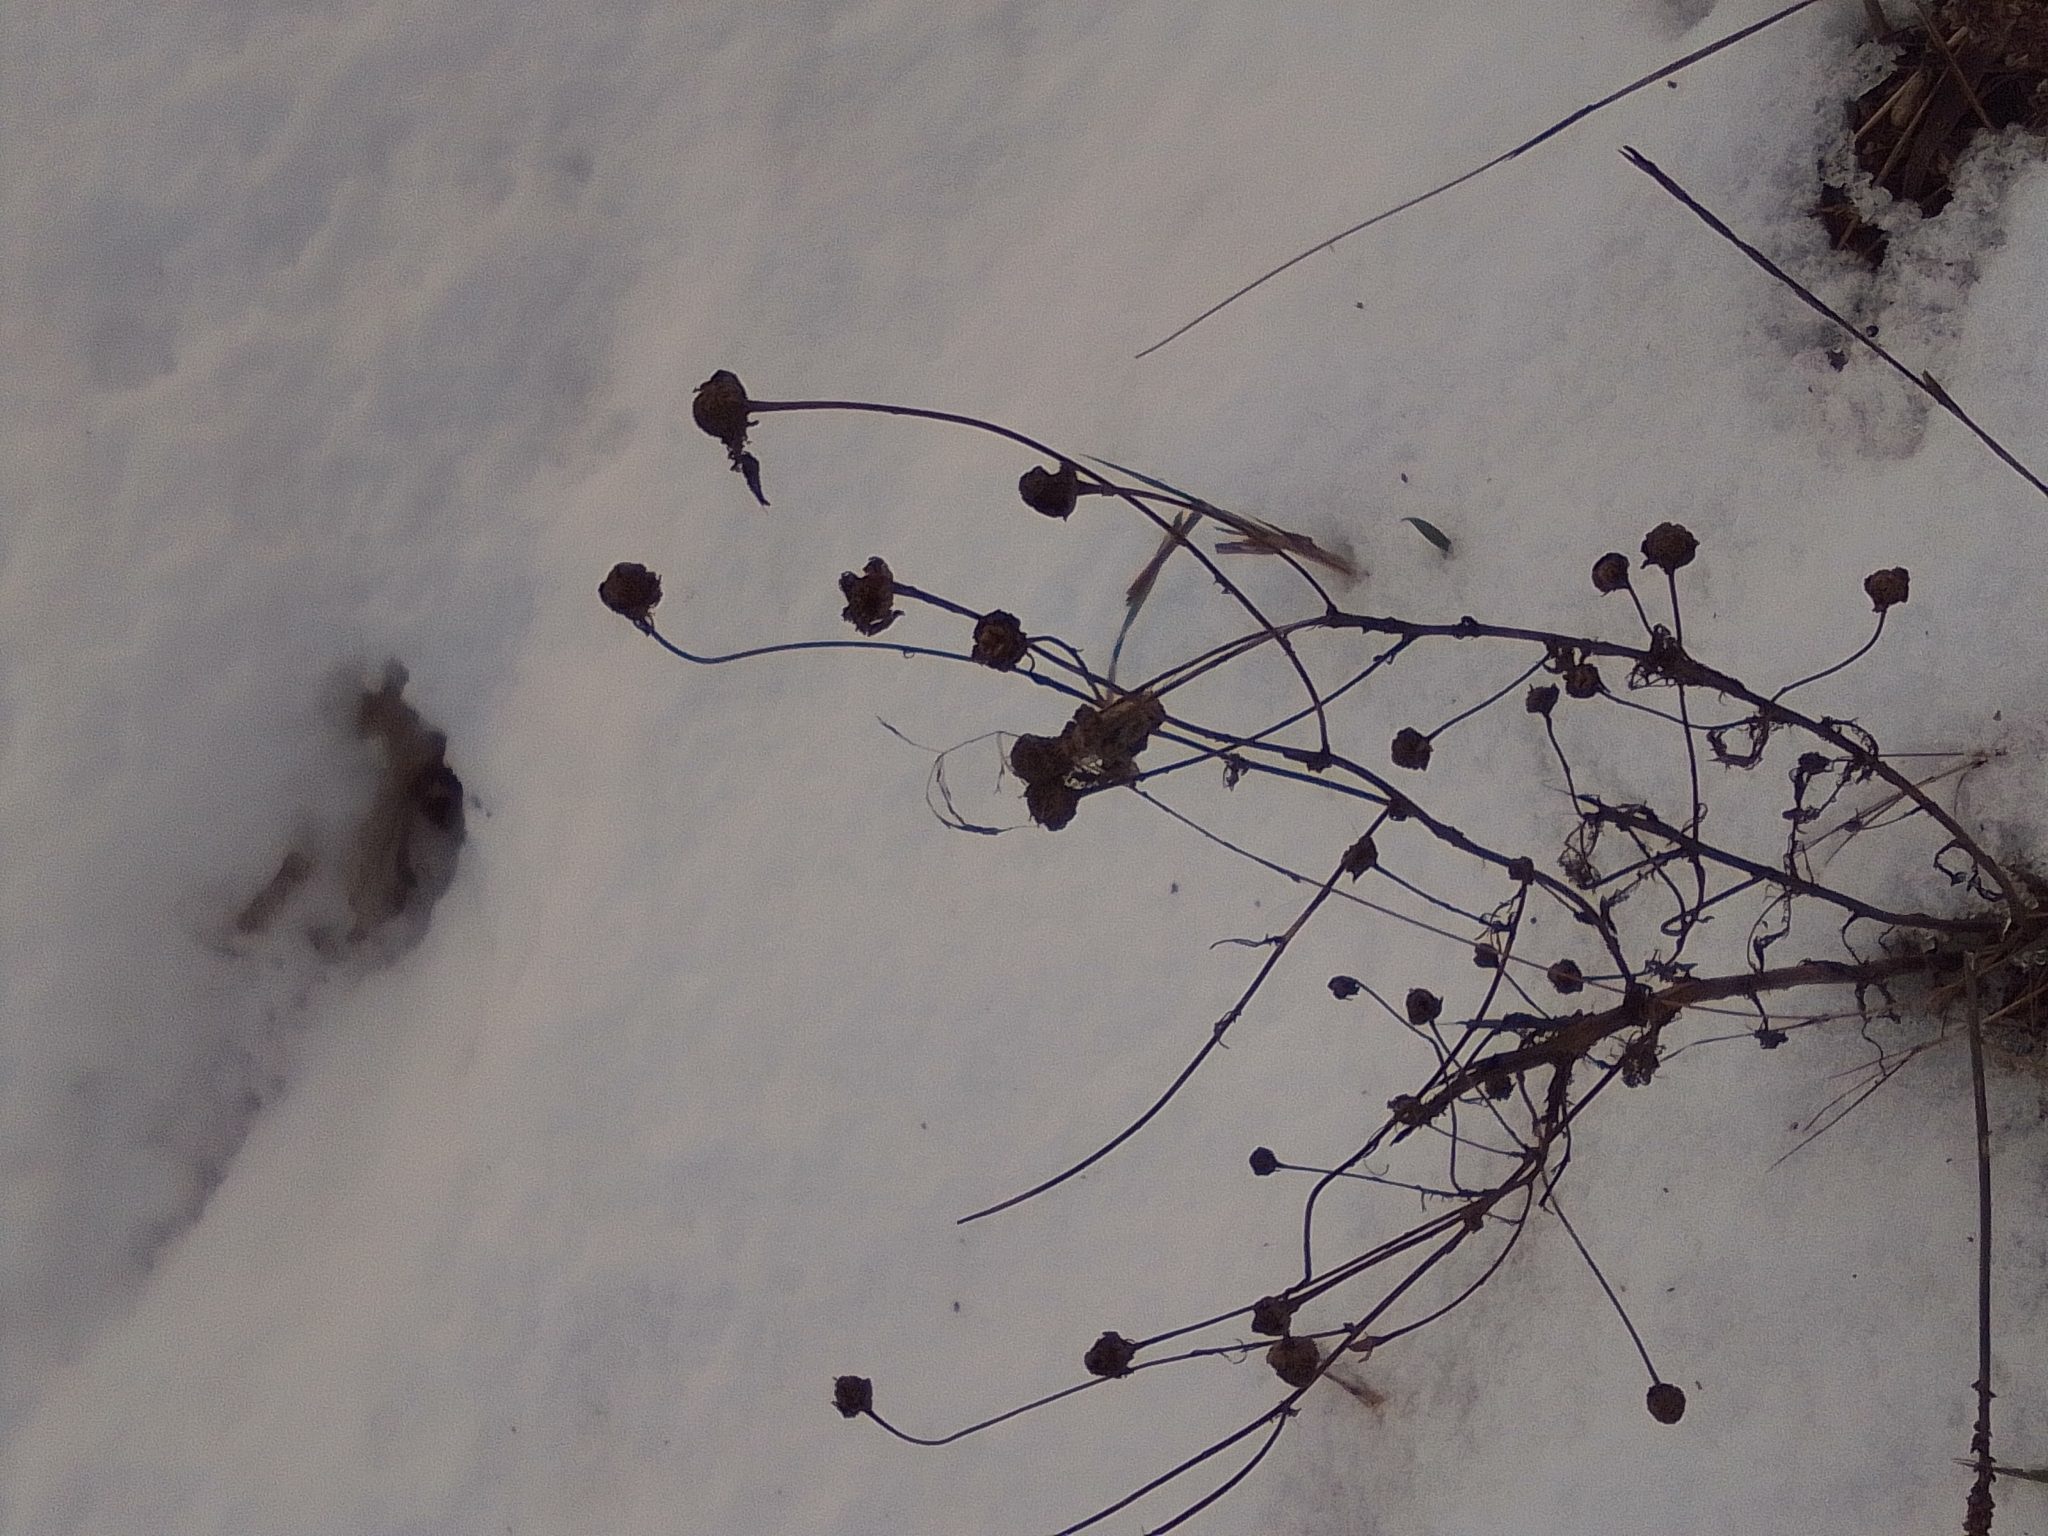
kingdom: Plantae
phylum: Tracheophyta
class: Magnoliopsida
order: Asterales
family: Asteraceae
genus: Tripleurospermum
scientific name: Tripleurospermum inodorum
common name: Scentless mayweed
